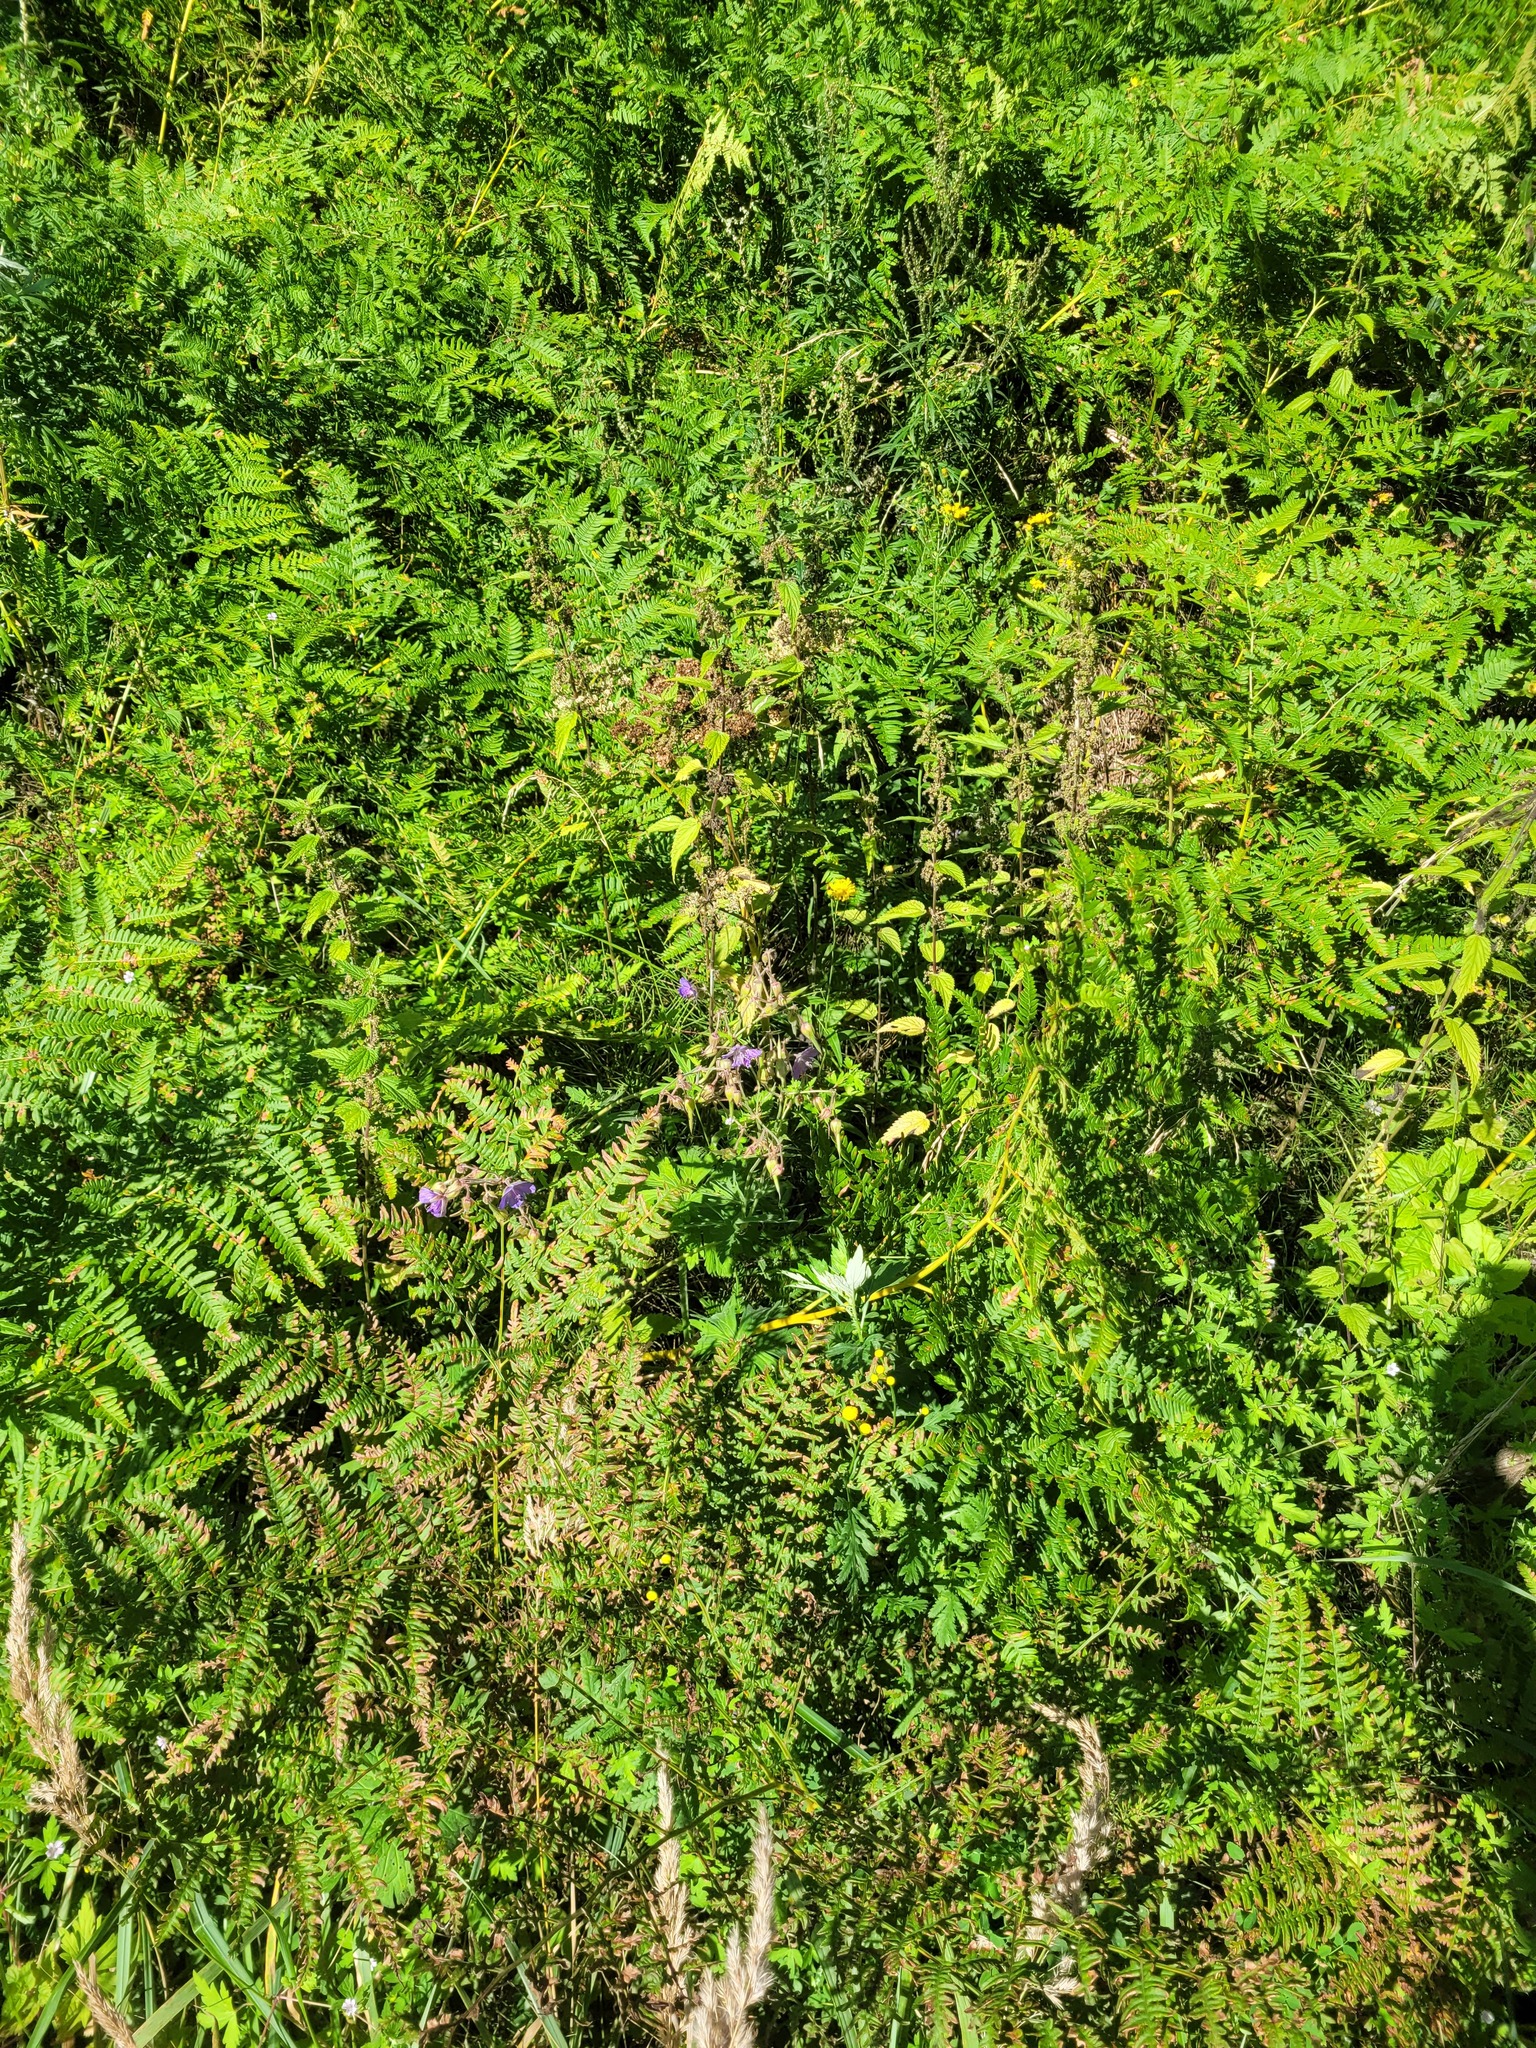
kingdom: Plantae
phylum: Tracheophyta
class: Magnoliopsida
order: Geraniales
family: Geraniaceae
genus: Geranium
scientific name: Geranium pratense
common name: Meadow crane's-bill
